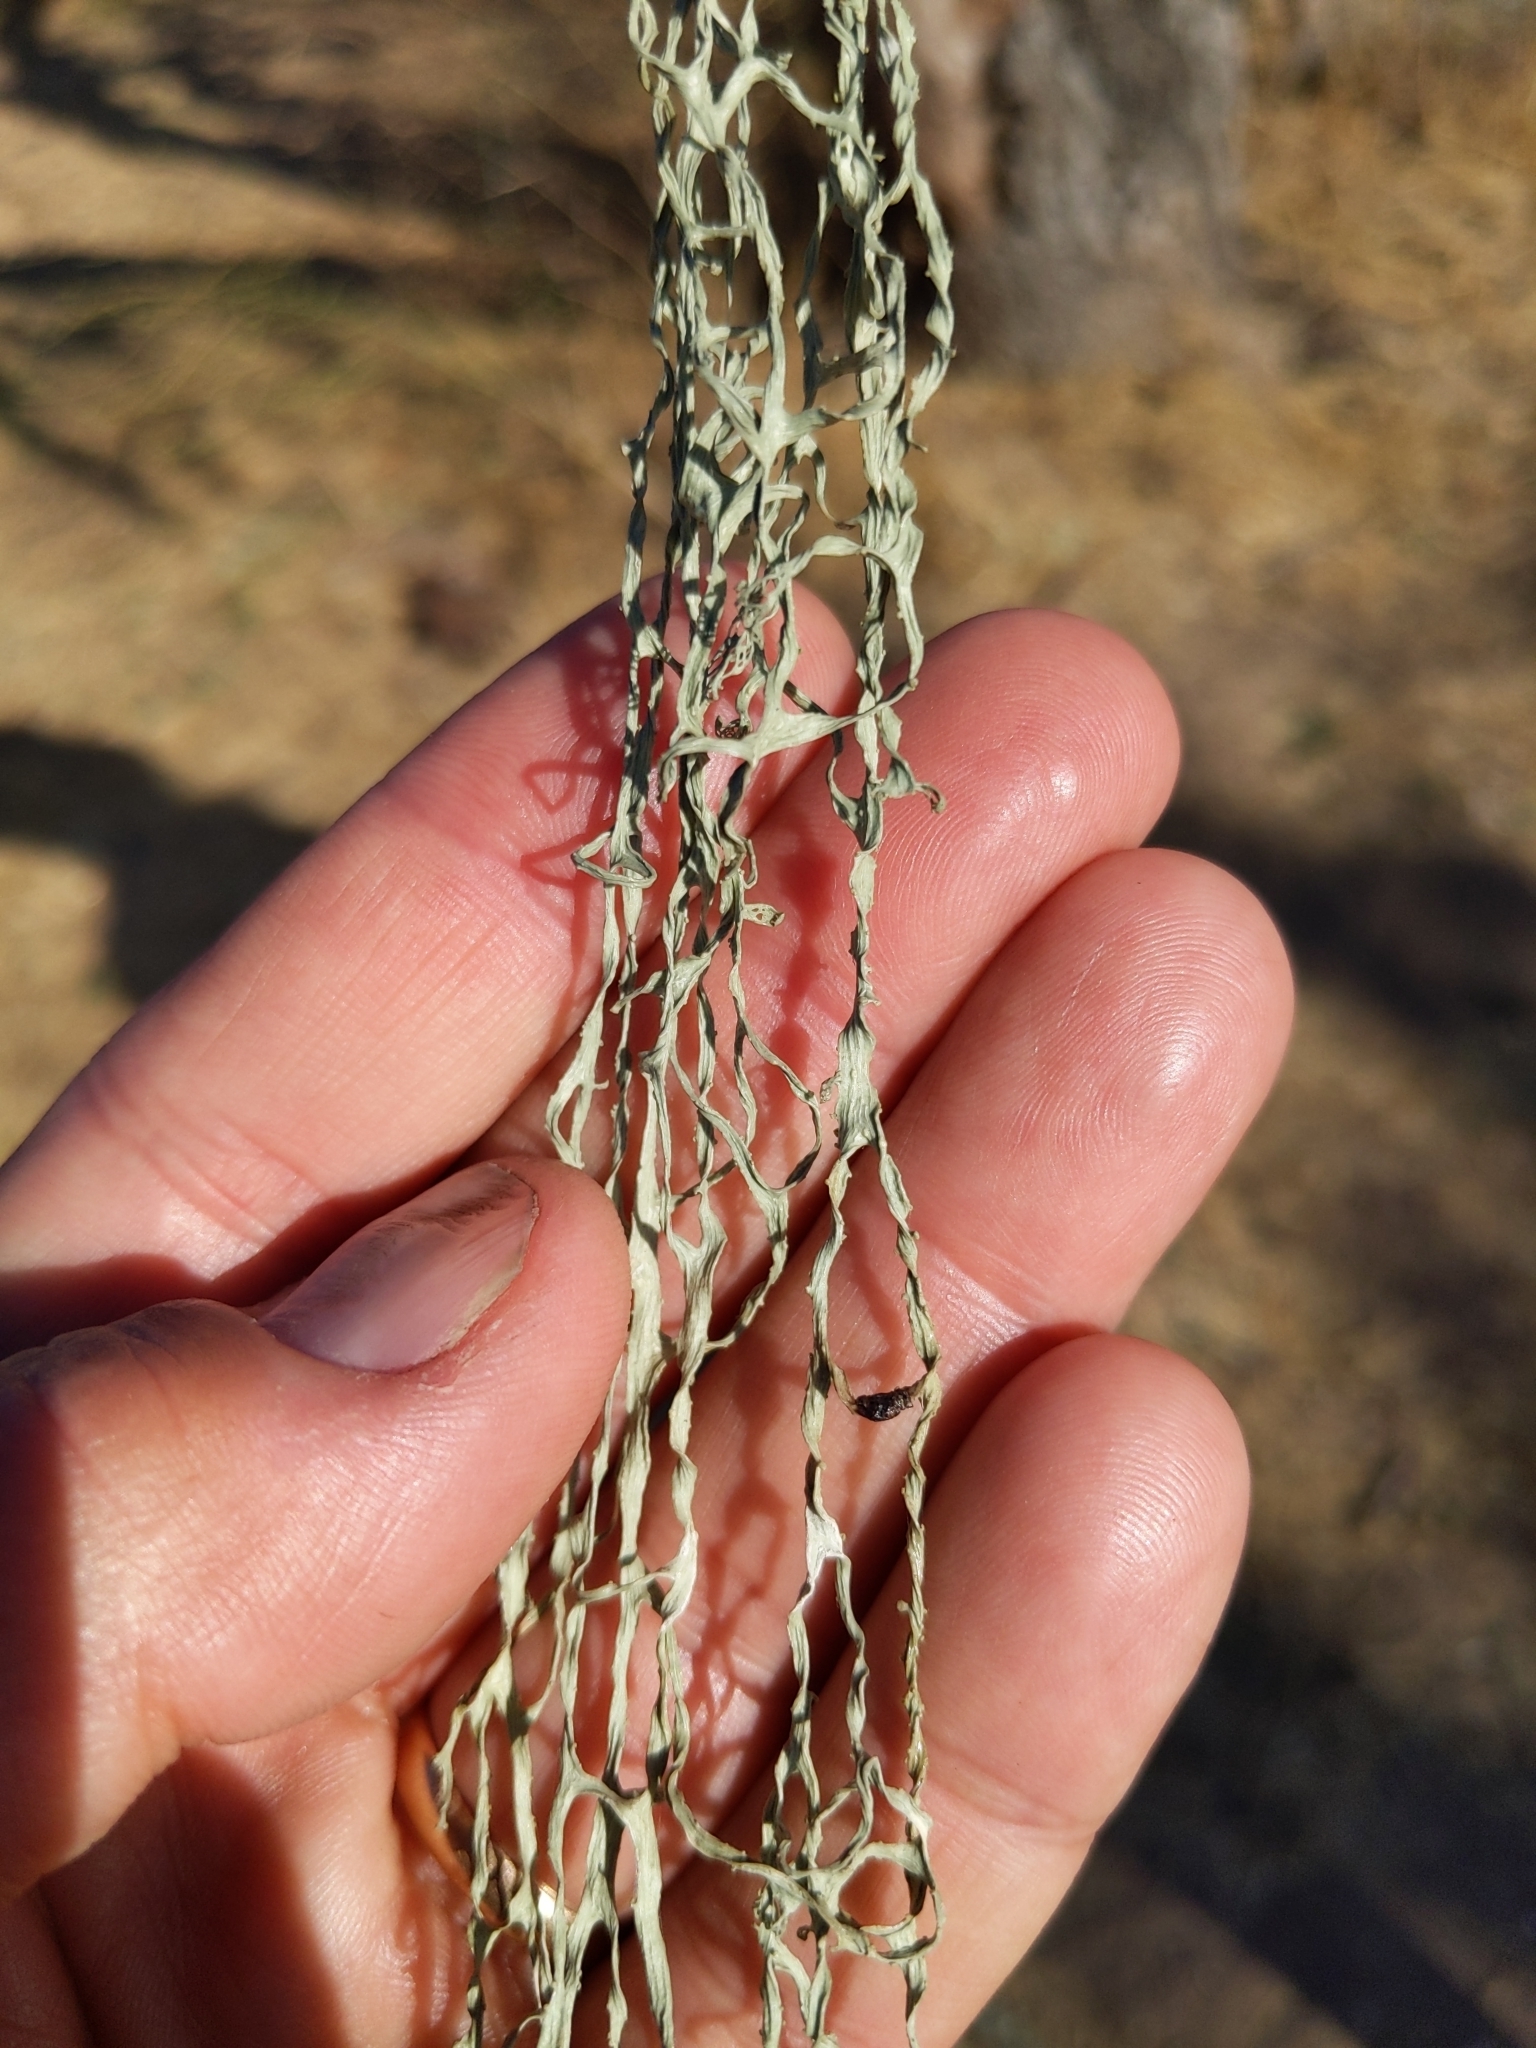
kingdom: Fungi
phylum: Ascomycota
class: Lecanoromycetes
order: Lecanorales
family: Ramalinaceae
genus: Ramalina
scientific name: Ramalina menziesii
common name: Lace lichen
